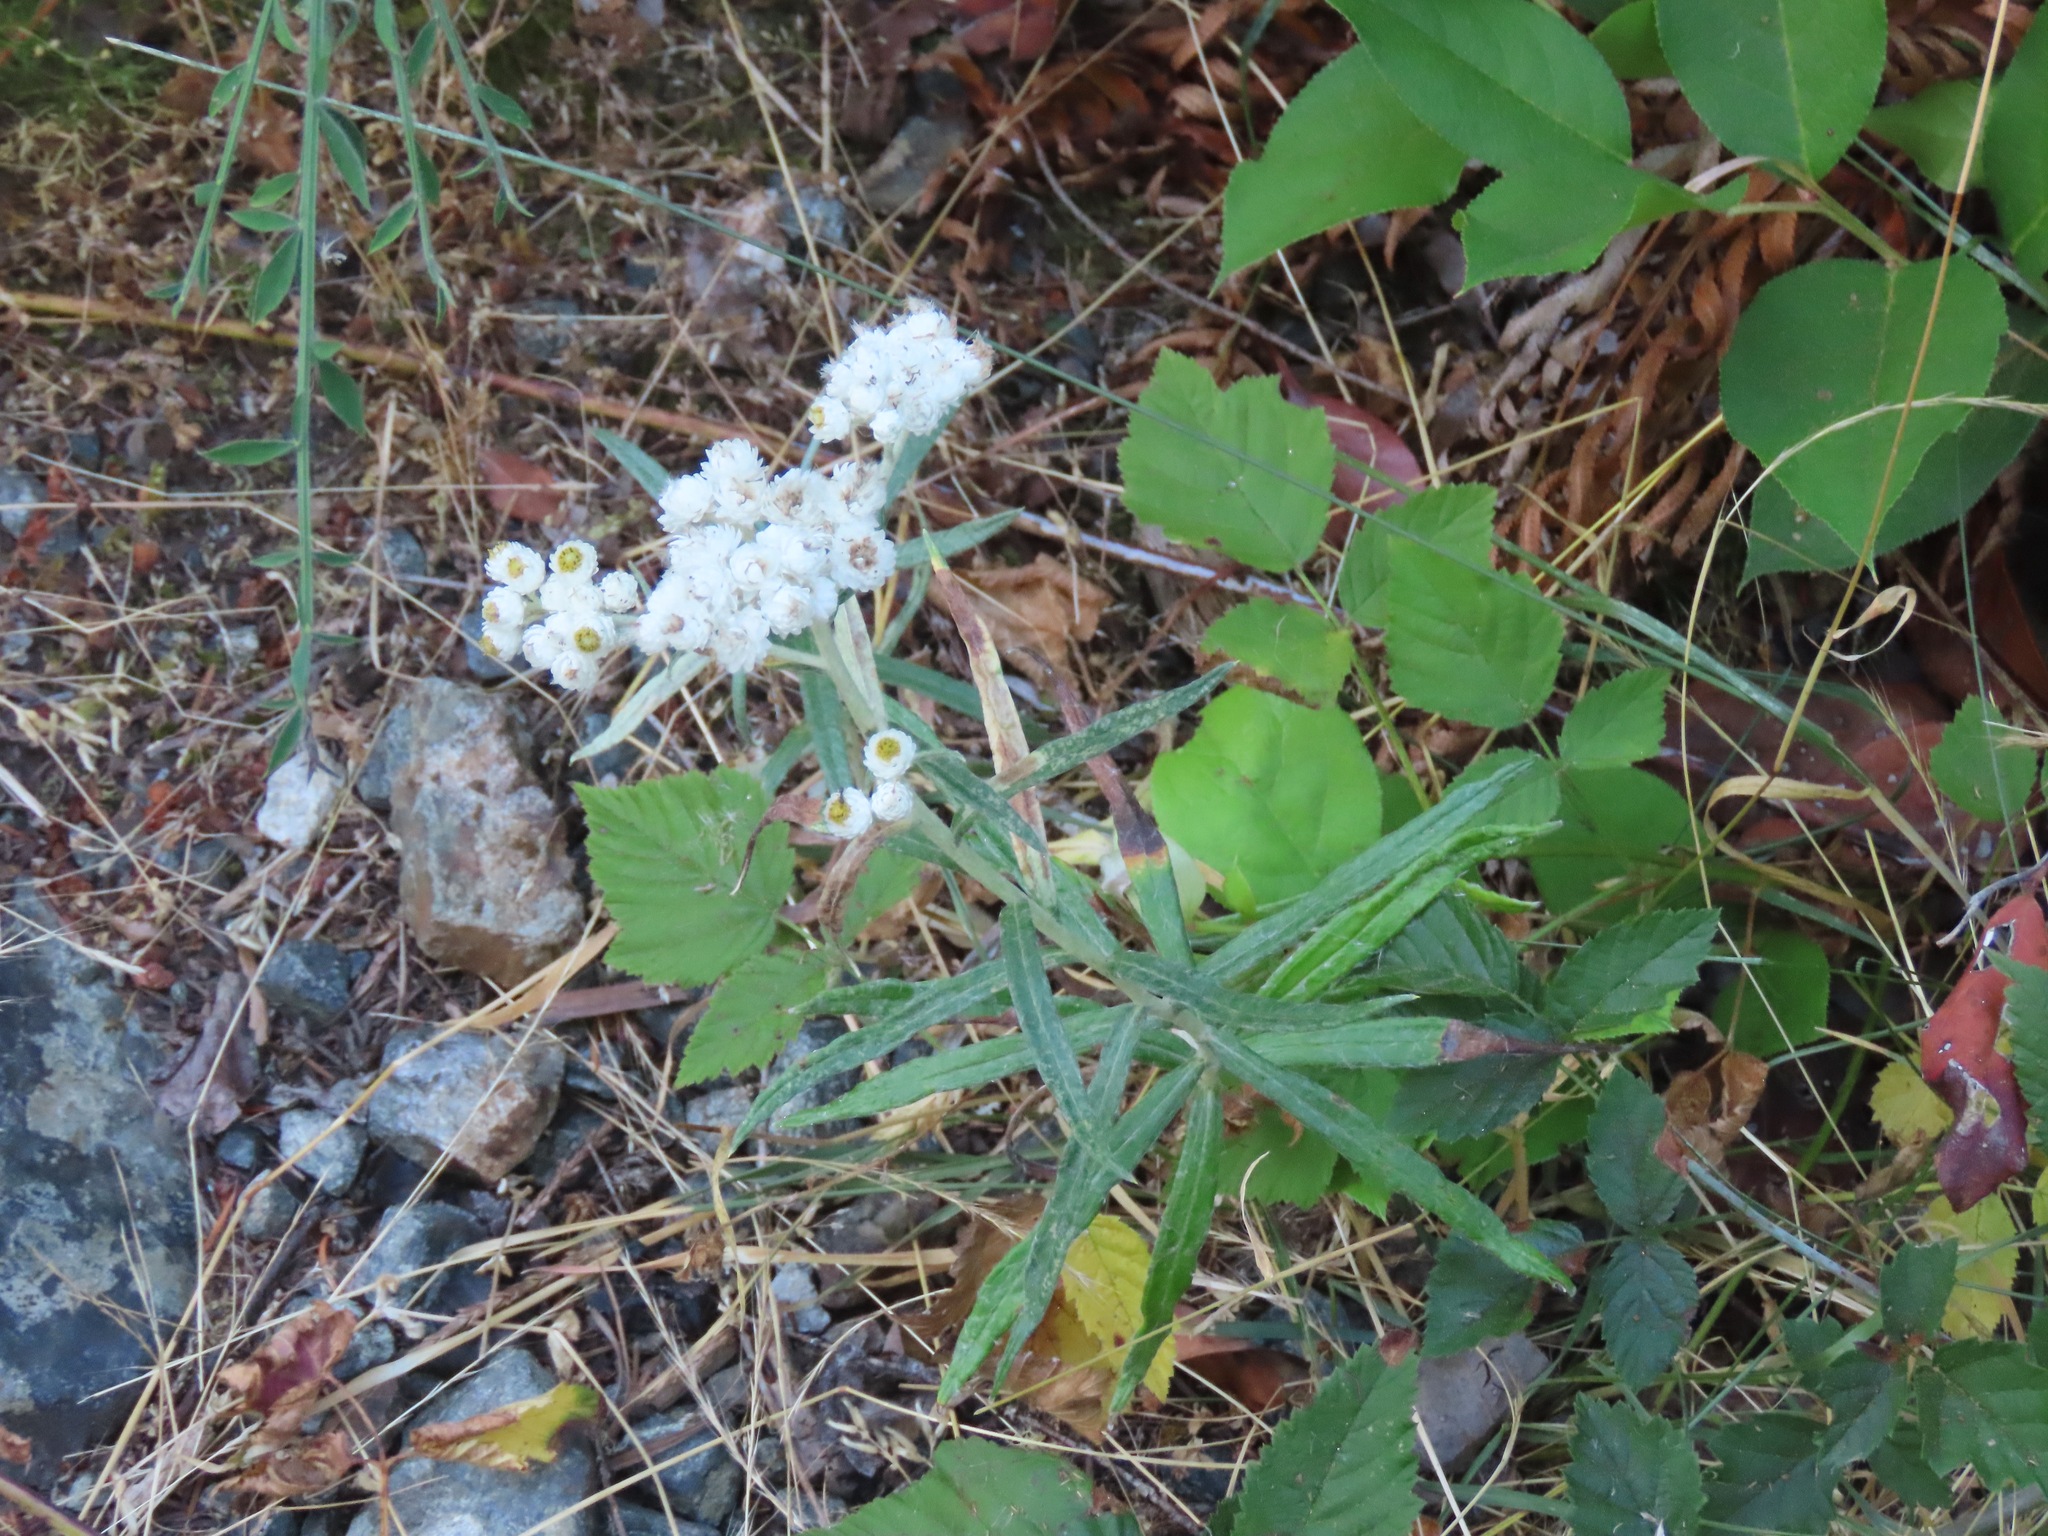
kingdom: Plantae
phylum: Tracheophyta
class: Magnoliopsida
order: Asterales
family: Asteraceae
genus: Anaphalis
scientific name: Anaphalis margaritacea
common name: Pearly everlasting
